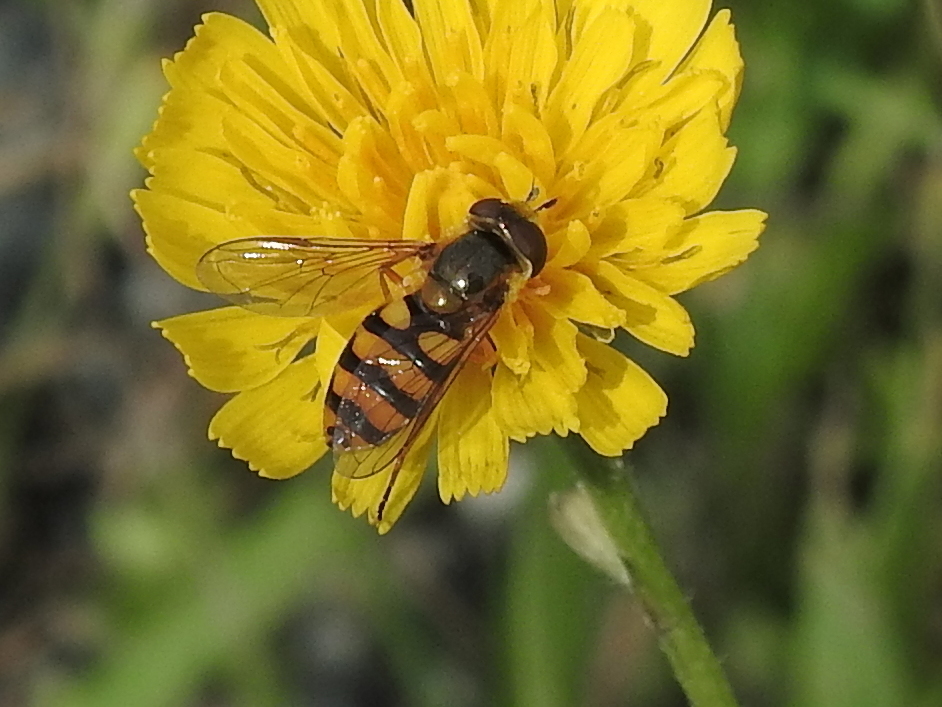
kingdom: Animalia
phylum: Arthropoda
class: Insecta
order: Diptera
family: Syrphidae
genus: Eupeodes
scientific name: Eupeodes latifasciatus
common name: Variable aphideater
